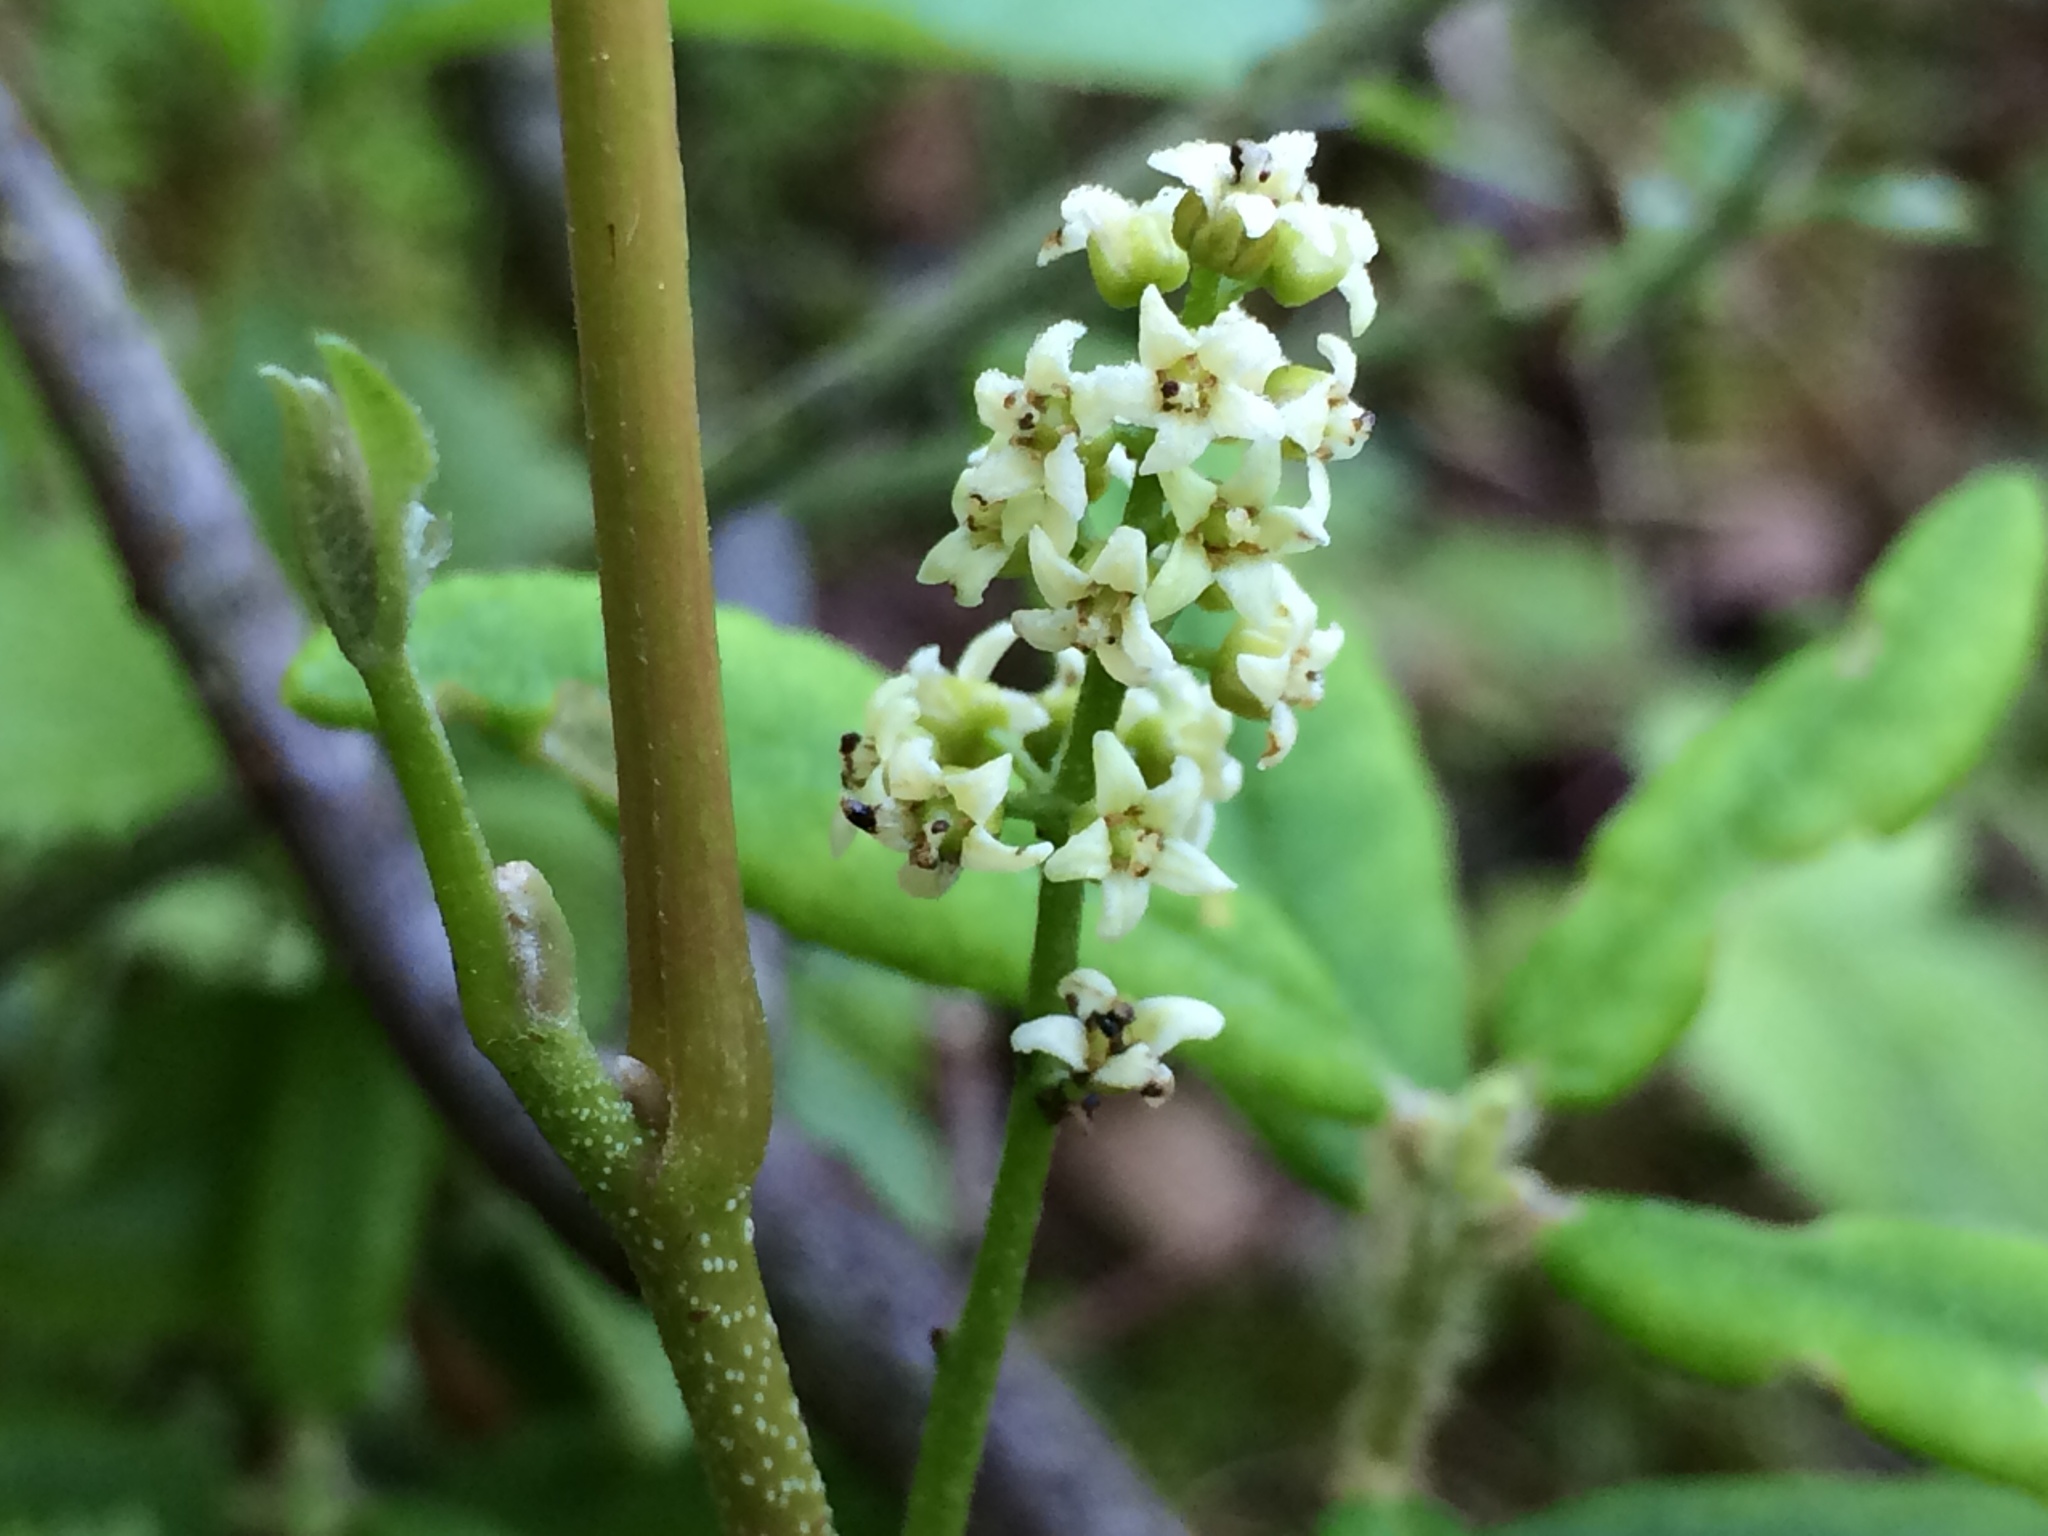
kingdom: Plantae
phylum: Tracheophyta
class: Magnoliopsida
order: Sapindales
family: Anacardiaceae
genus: Toxicodendron
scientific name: Toxicodendron rydbergii
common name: Rydberg's poison-ivy
